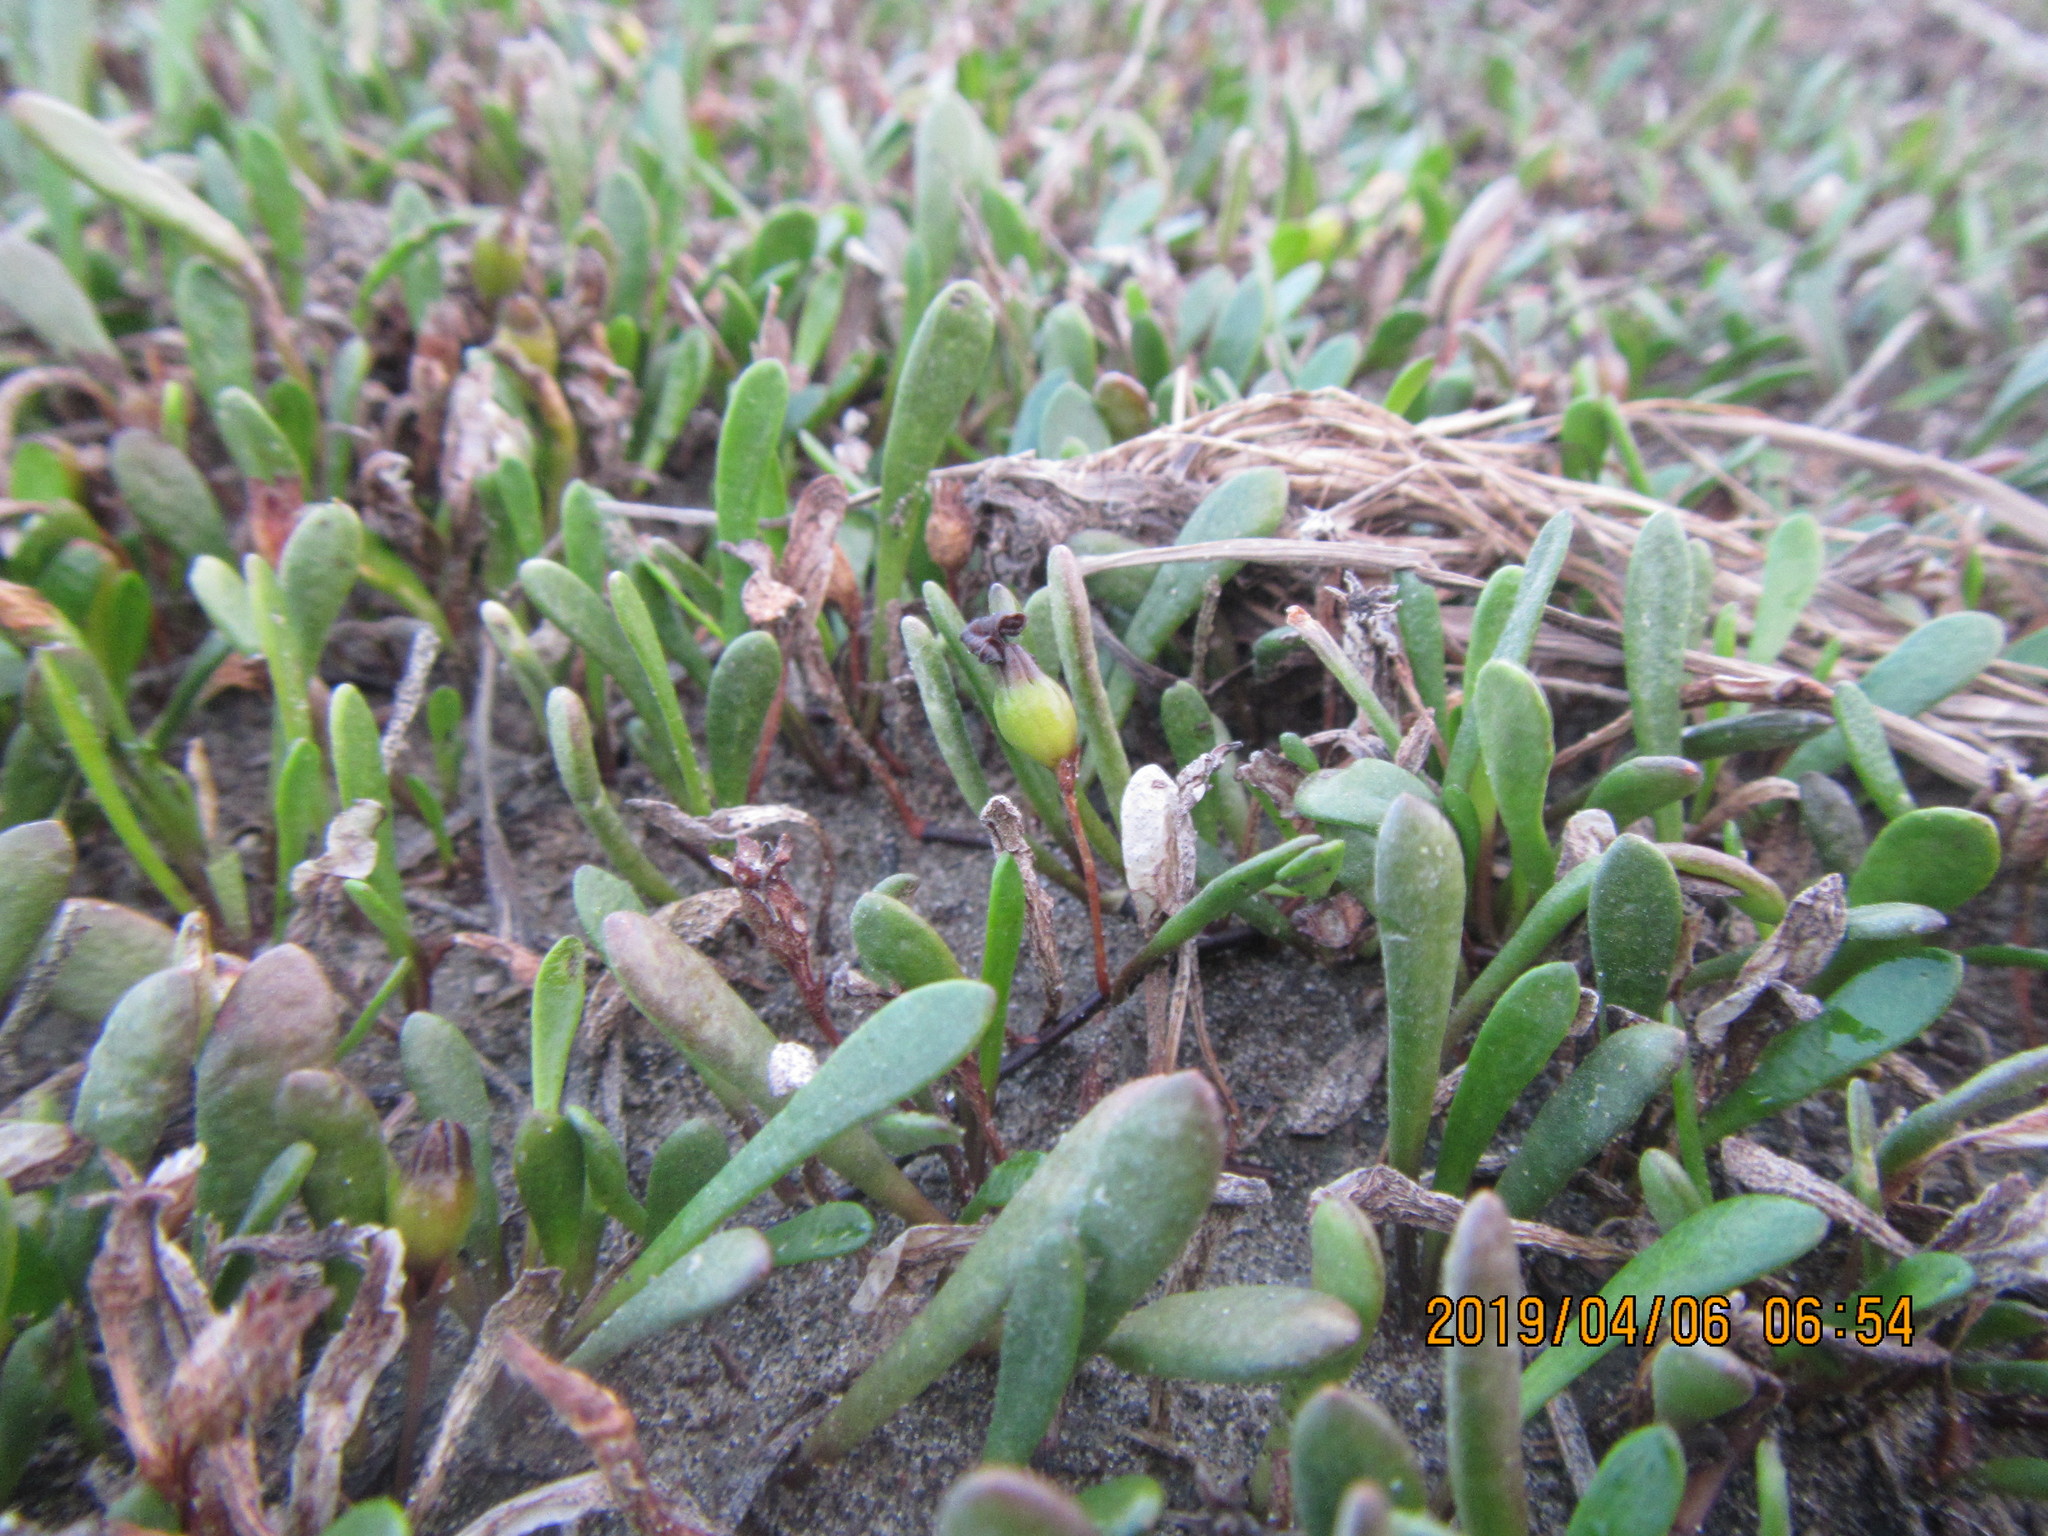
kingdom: Plantae
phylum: Tracheophyta
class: Magnoliopsida
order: Asterales
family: Goodeniaceae
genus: Goodenia
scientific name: Goodenia radicans
